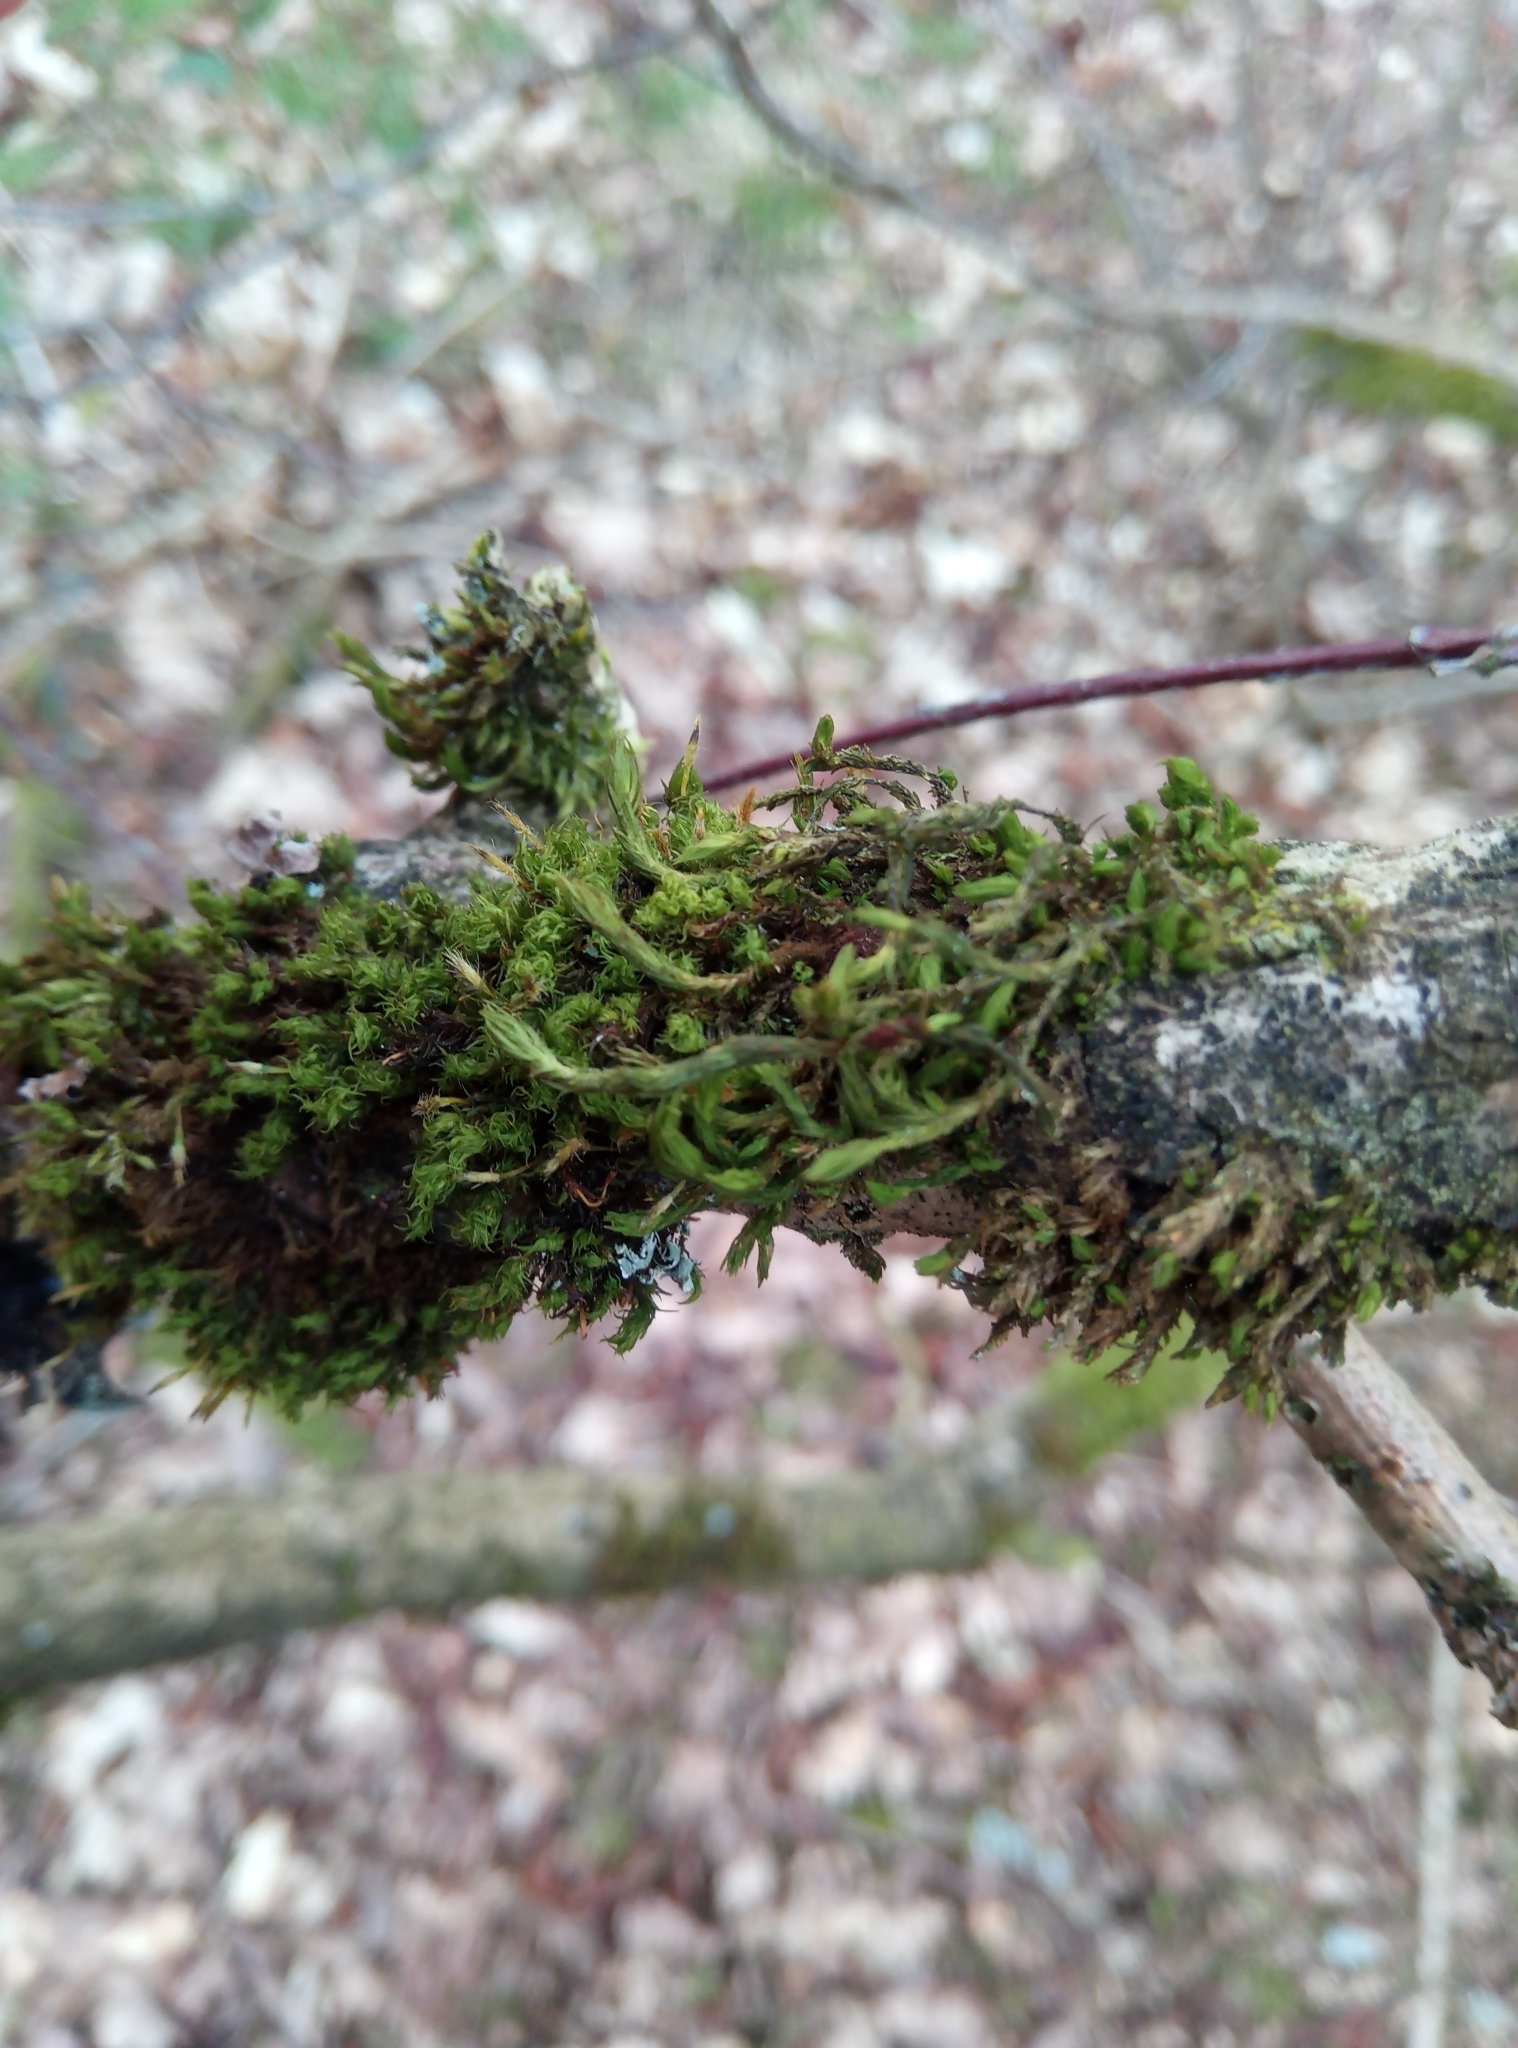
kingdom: Plantae
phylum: Bryophyta
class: Bryopsida
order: Orthotrichales
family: Orthotrichaceae
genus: Pulvigera
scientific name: Pulvigera lyellii
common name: Lyell's bristle-moss
